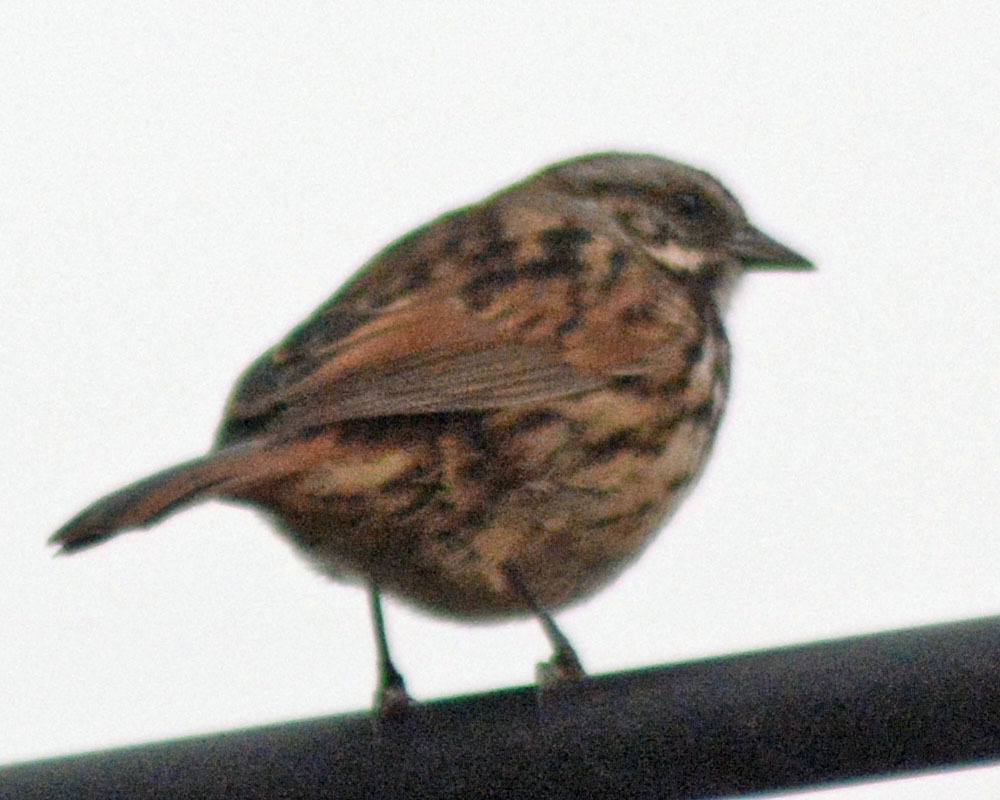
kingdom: Animalia
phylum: Chordata
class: Aves
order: Passeriformes
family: Passerellidae
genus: Melospiza
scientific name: Melospiza melodia
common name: Song sparrow
